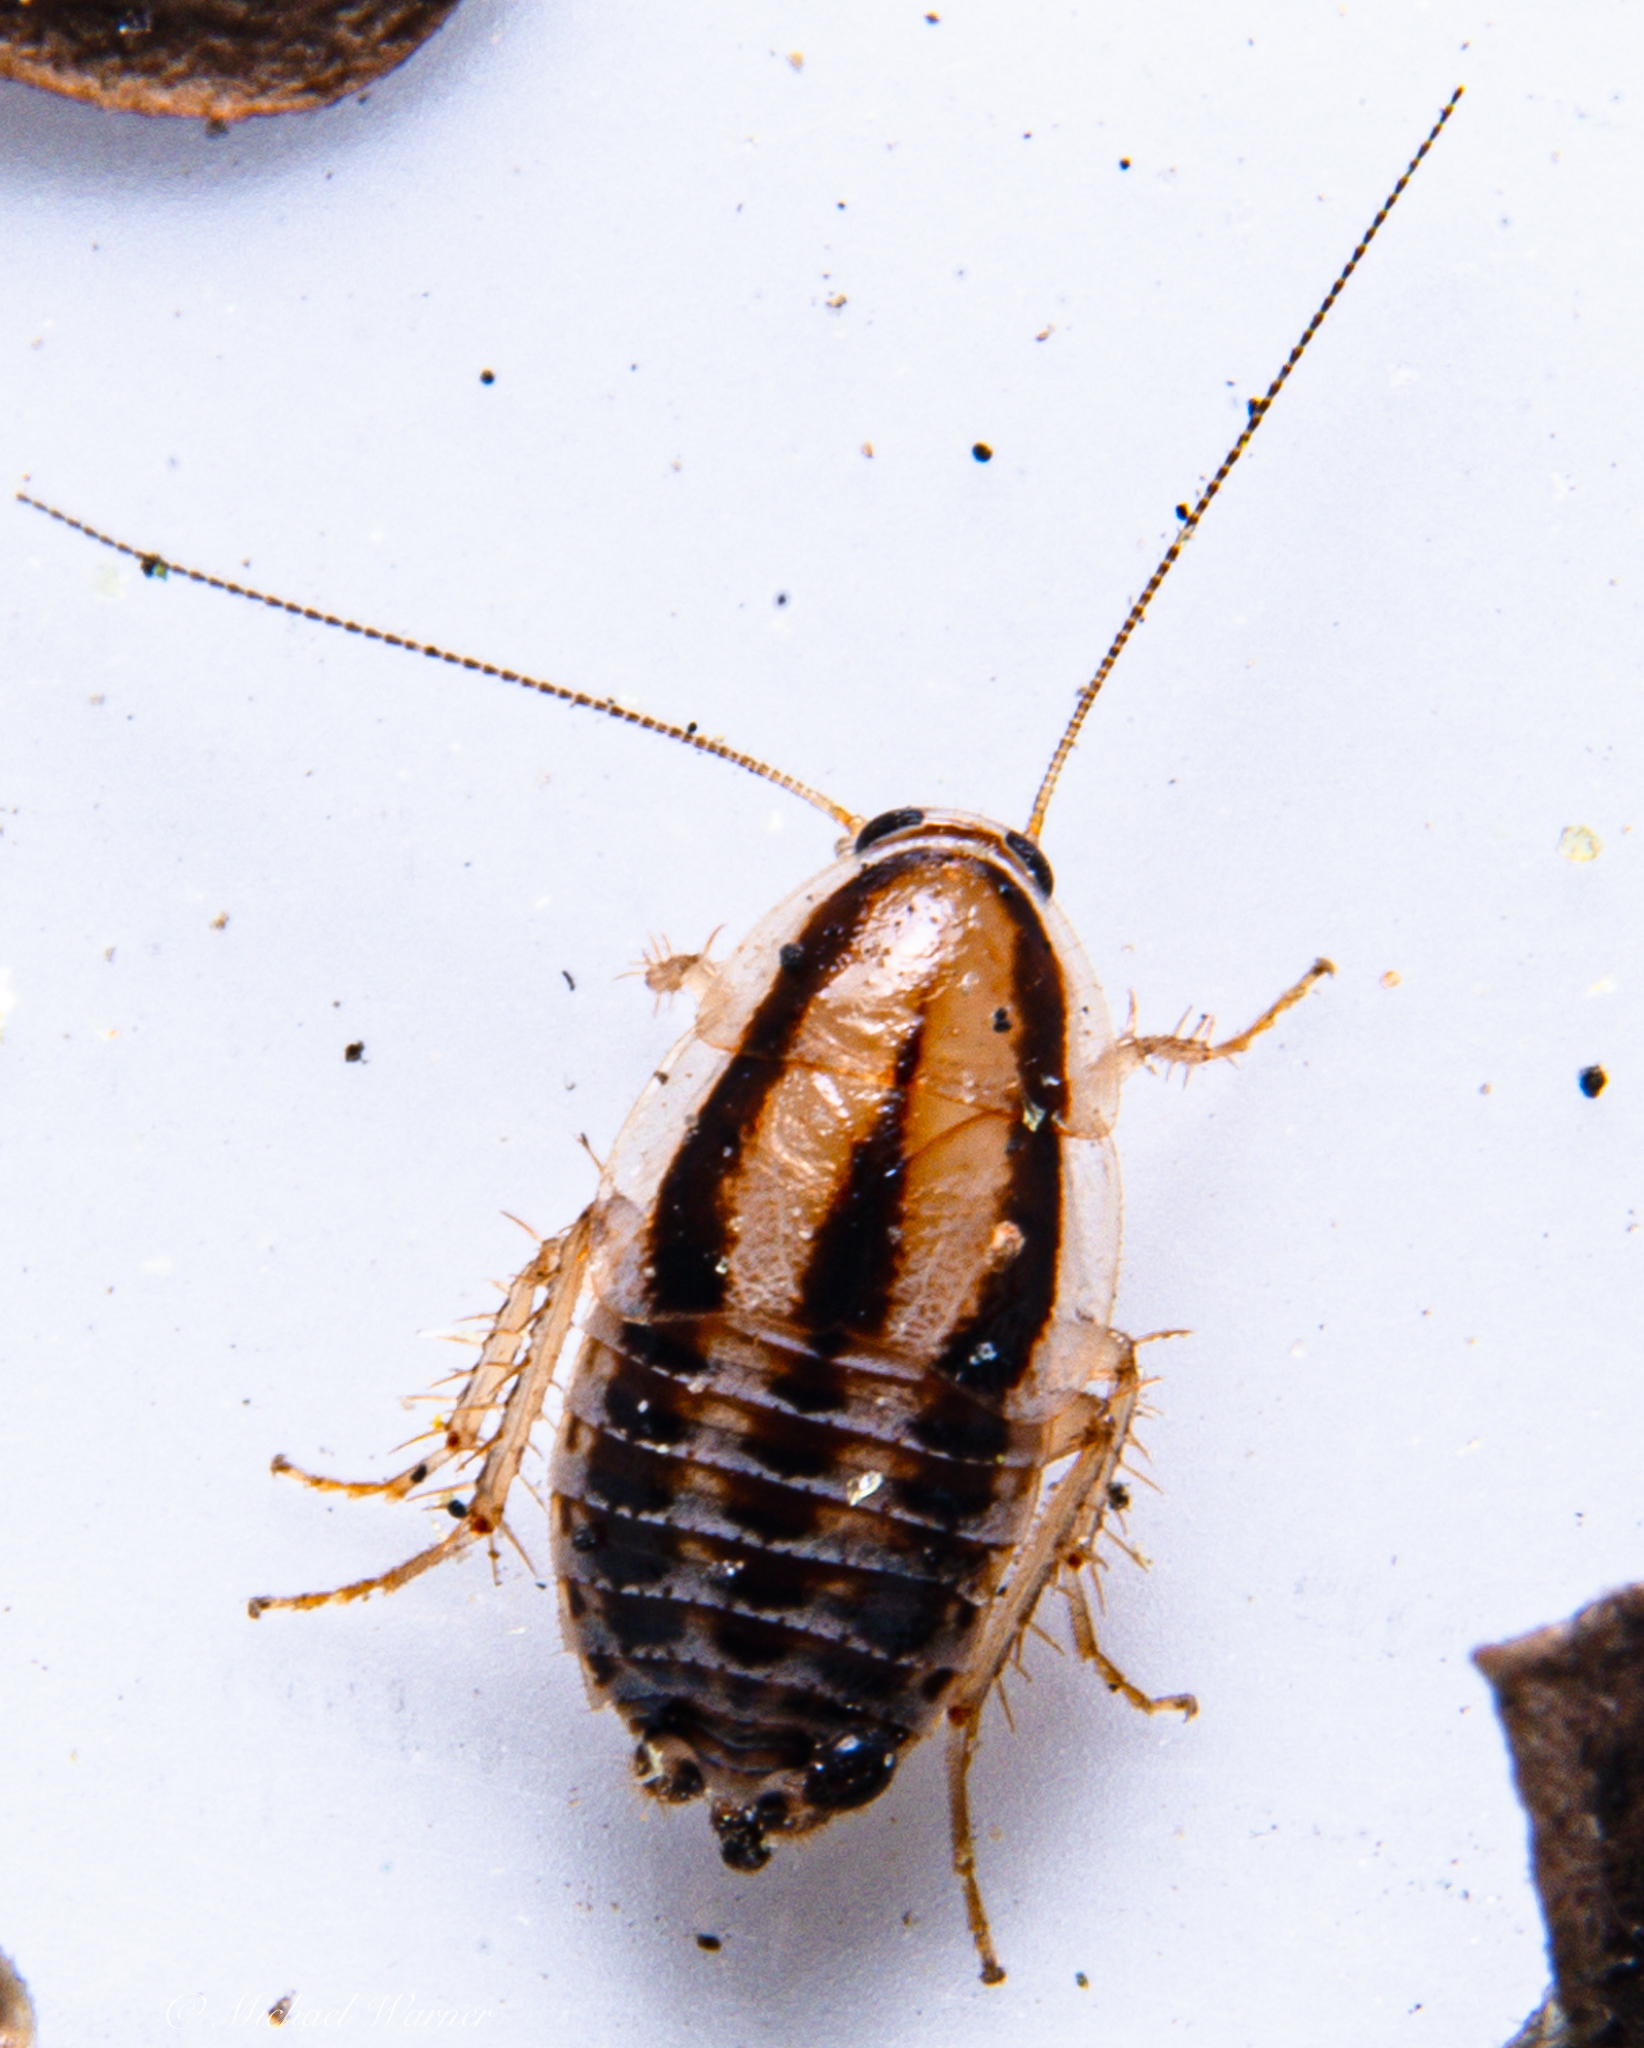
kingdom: Animalia
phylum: Arthropoda
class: Insecta
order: Blattodea
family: Ectobiidae
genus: Luridiblatta
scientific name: Luridiblatta trivittata
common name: Three-lined cockroach
